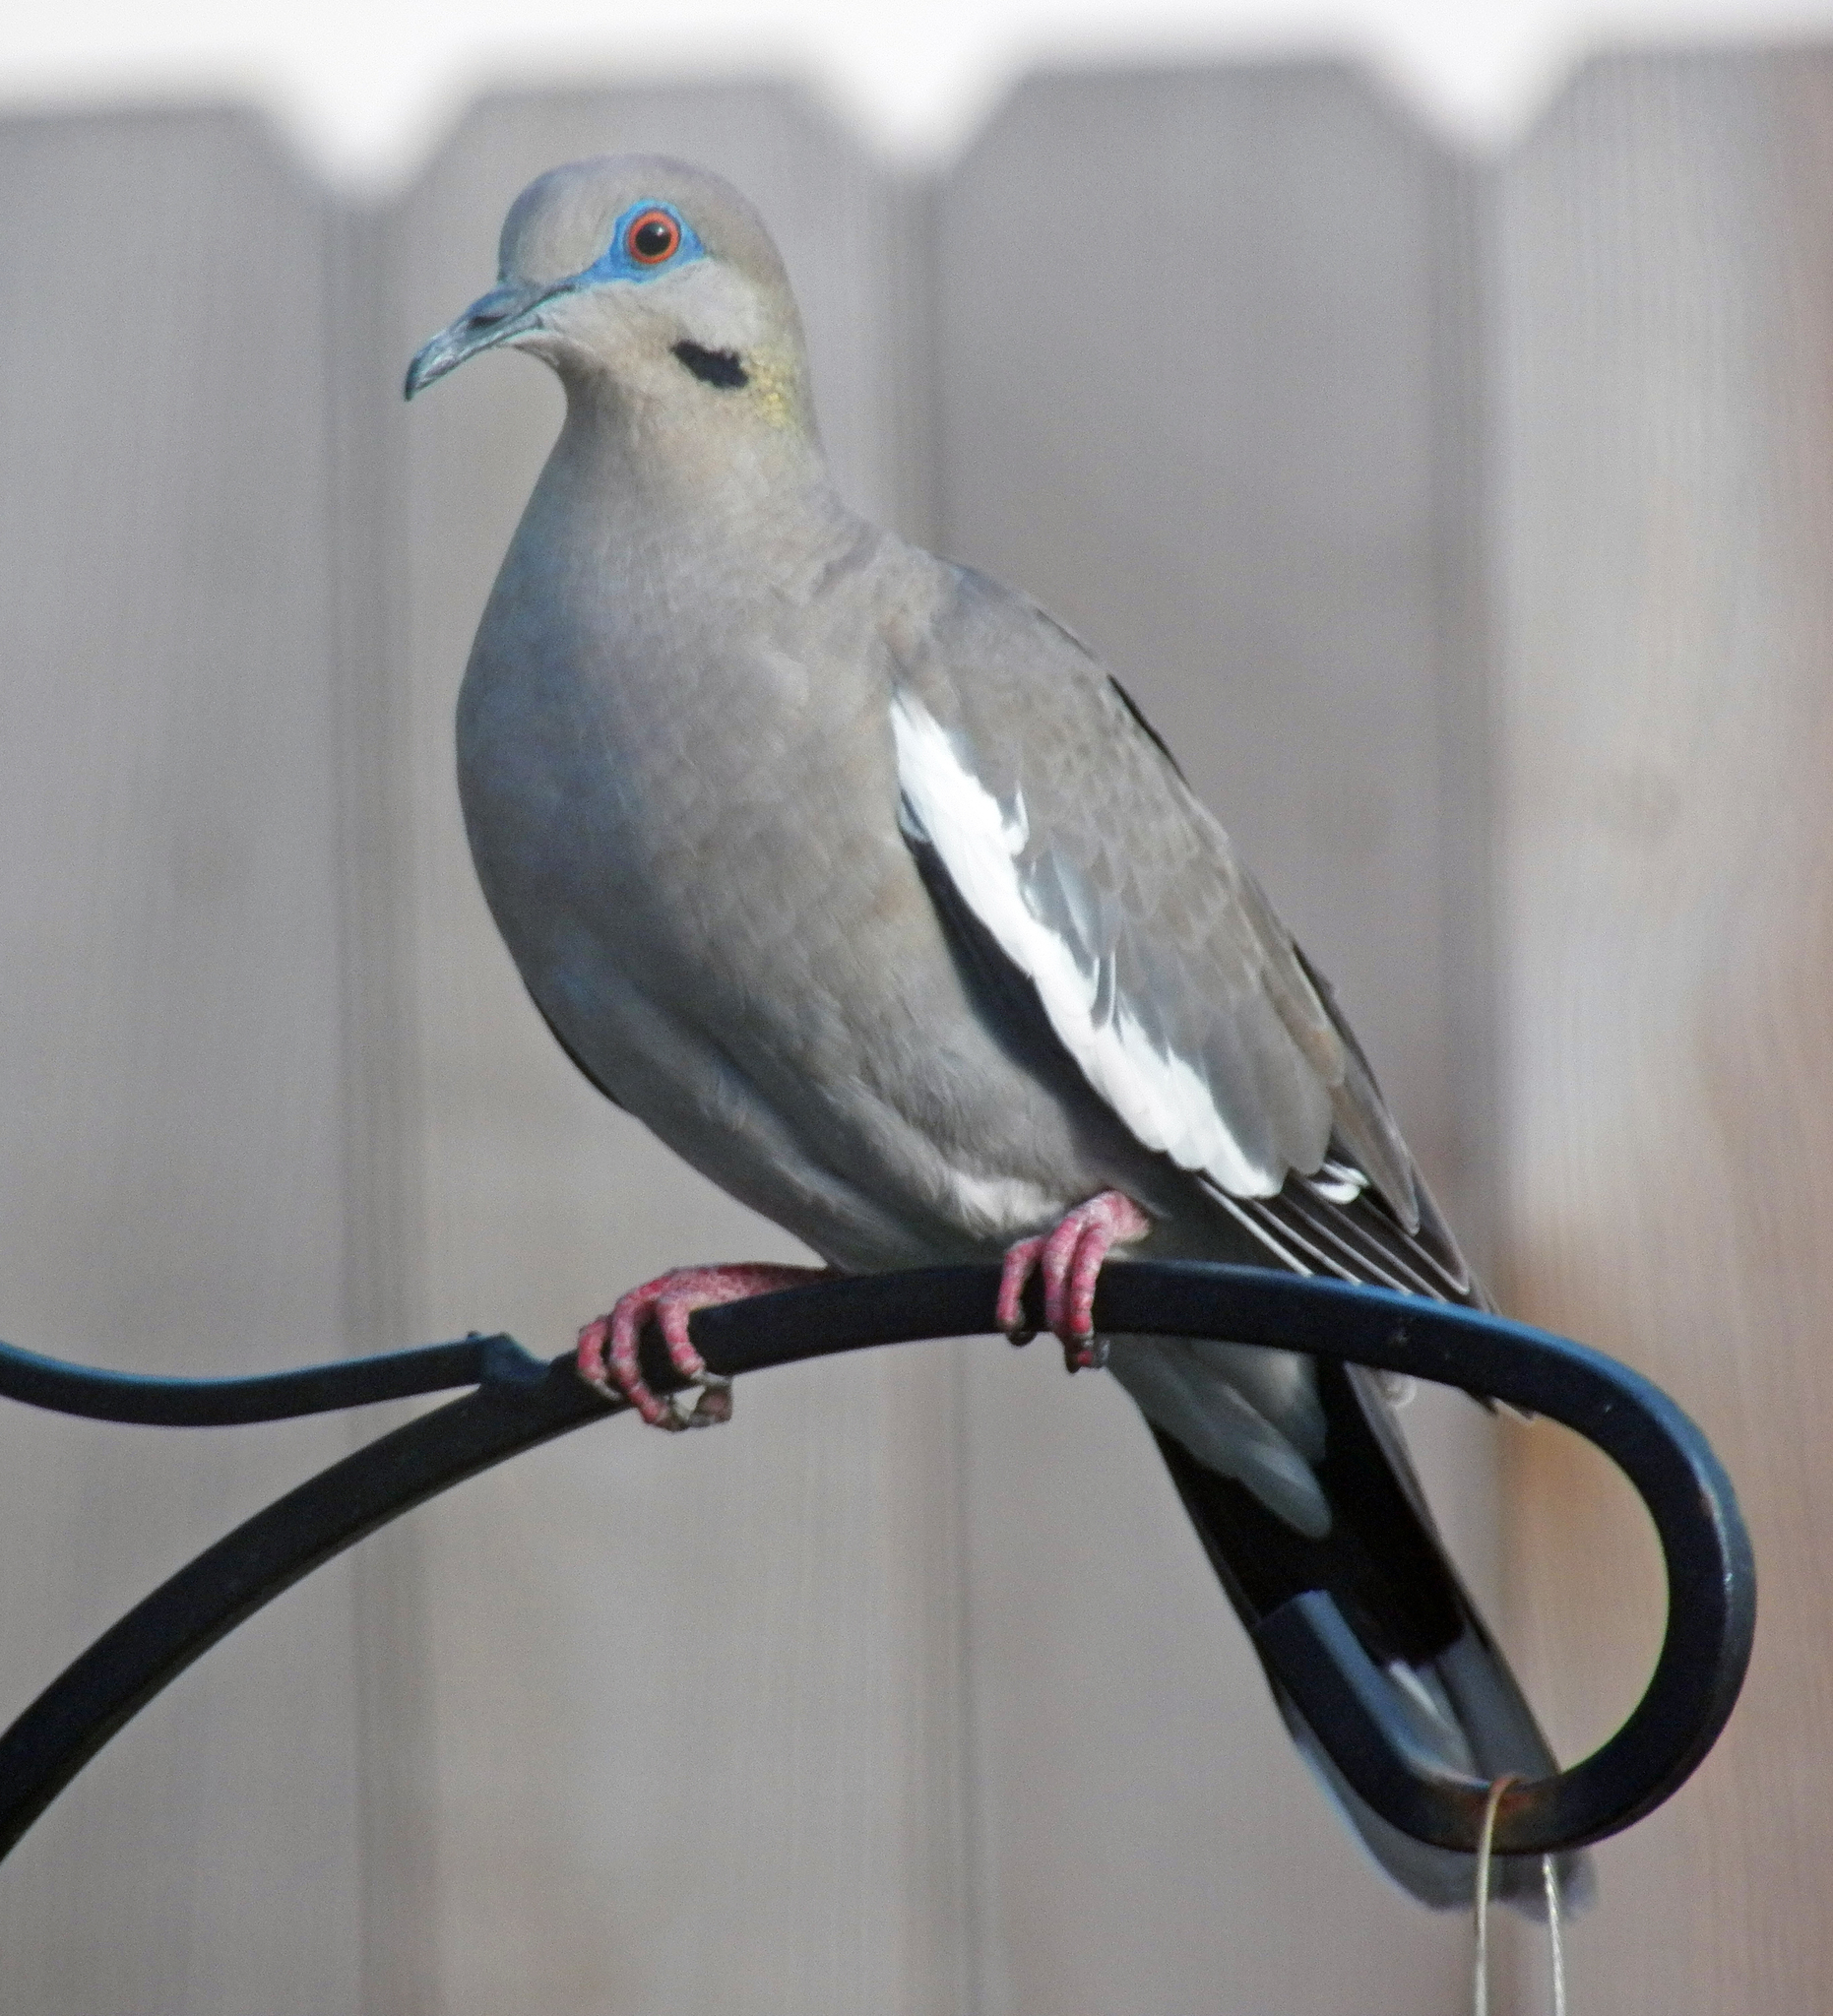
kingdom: Animalia
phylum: Chordata
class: Aves
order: Columbiformes
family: Columbidae
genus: Zenaida
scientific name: Zenaida asiatica
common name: White-winged dove
